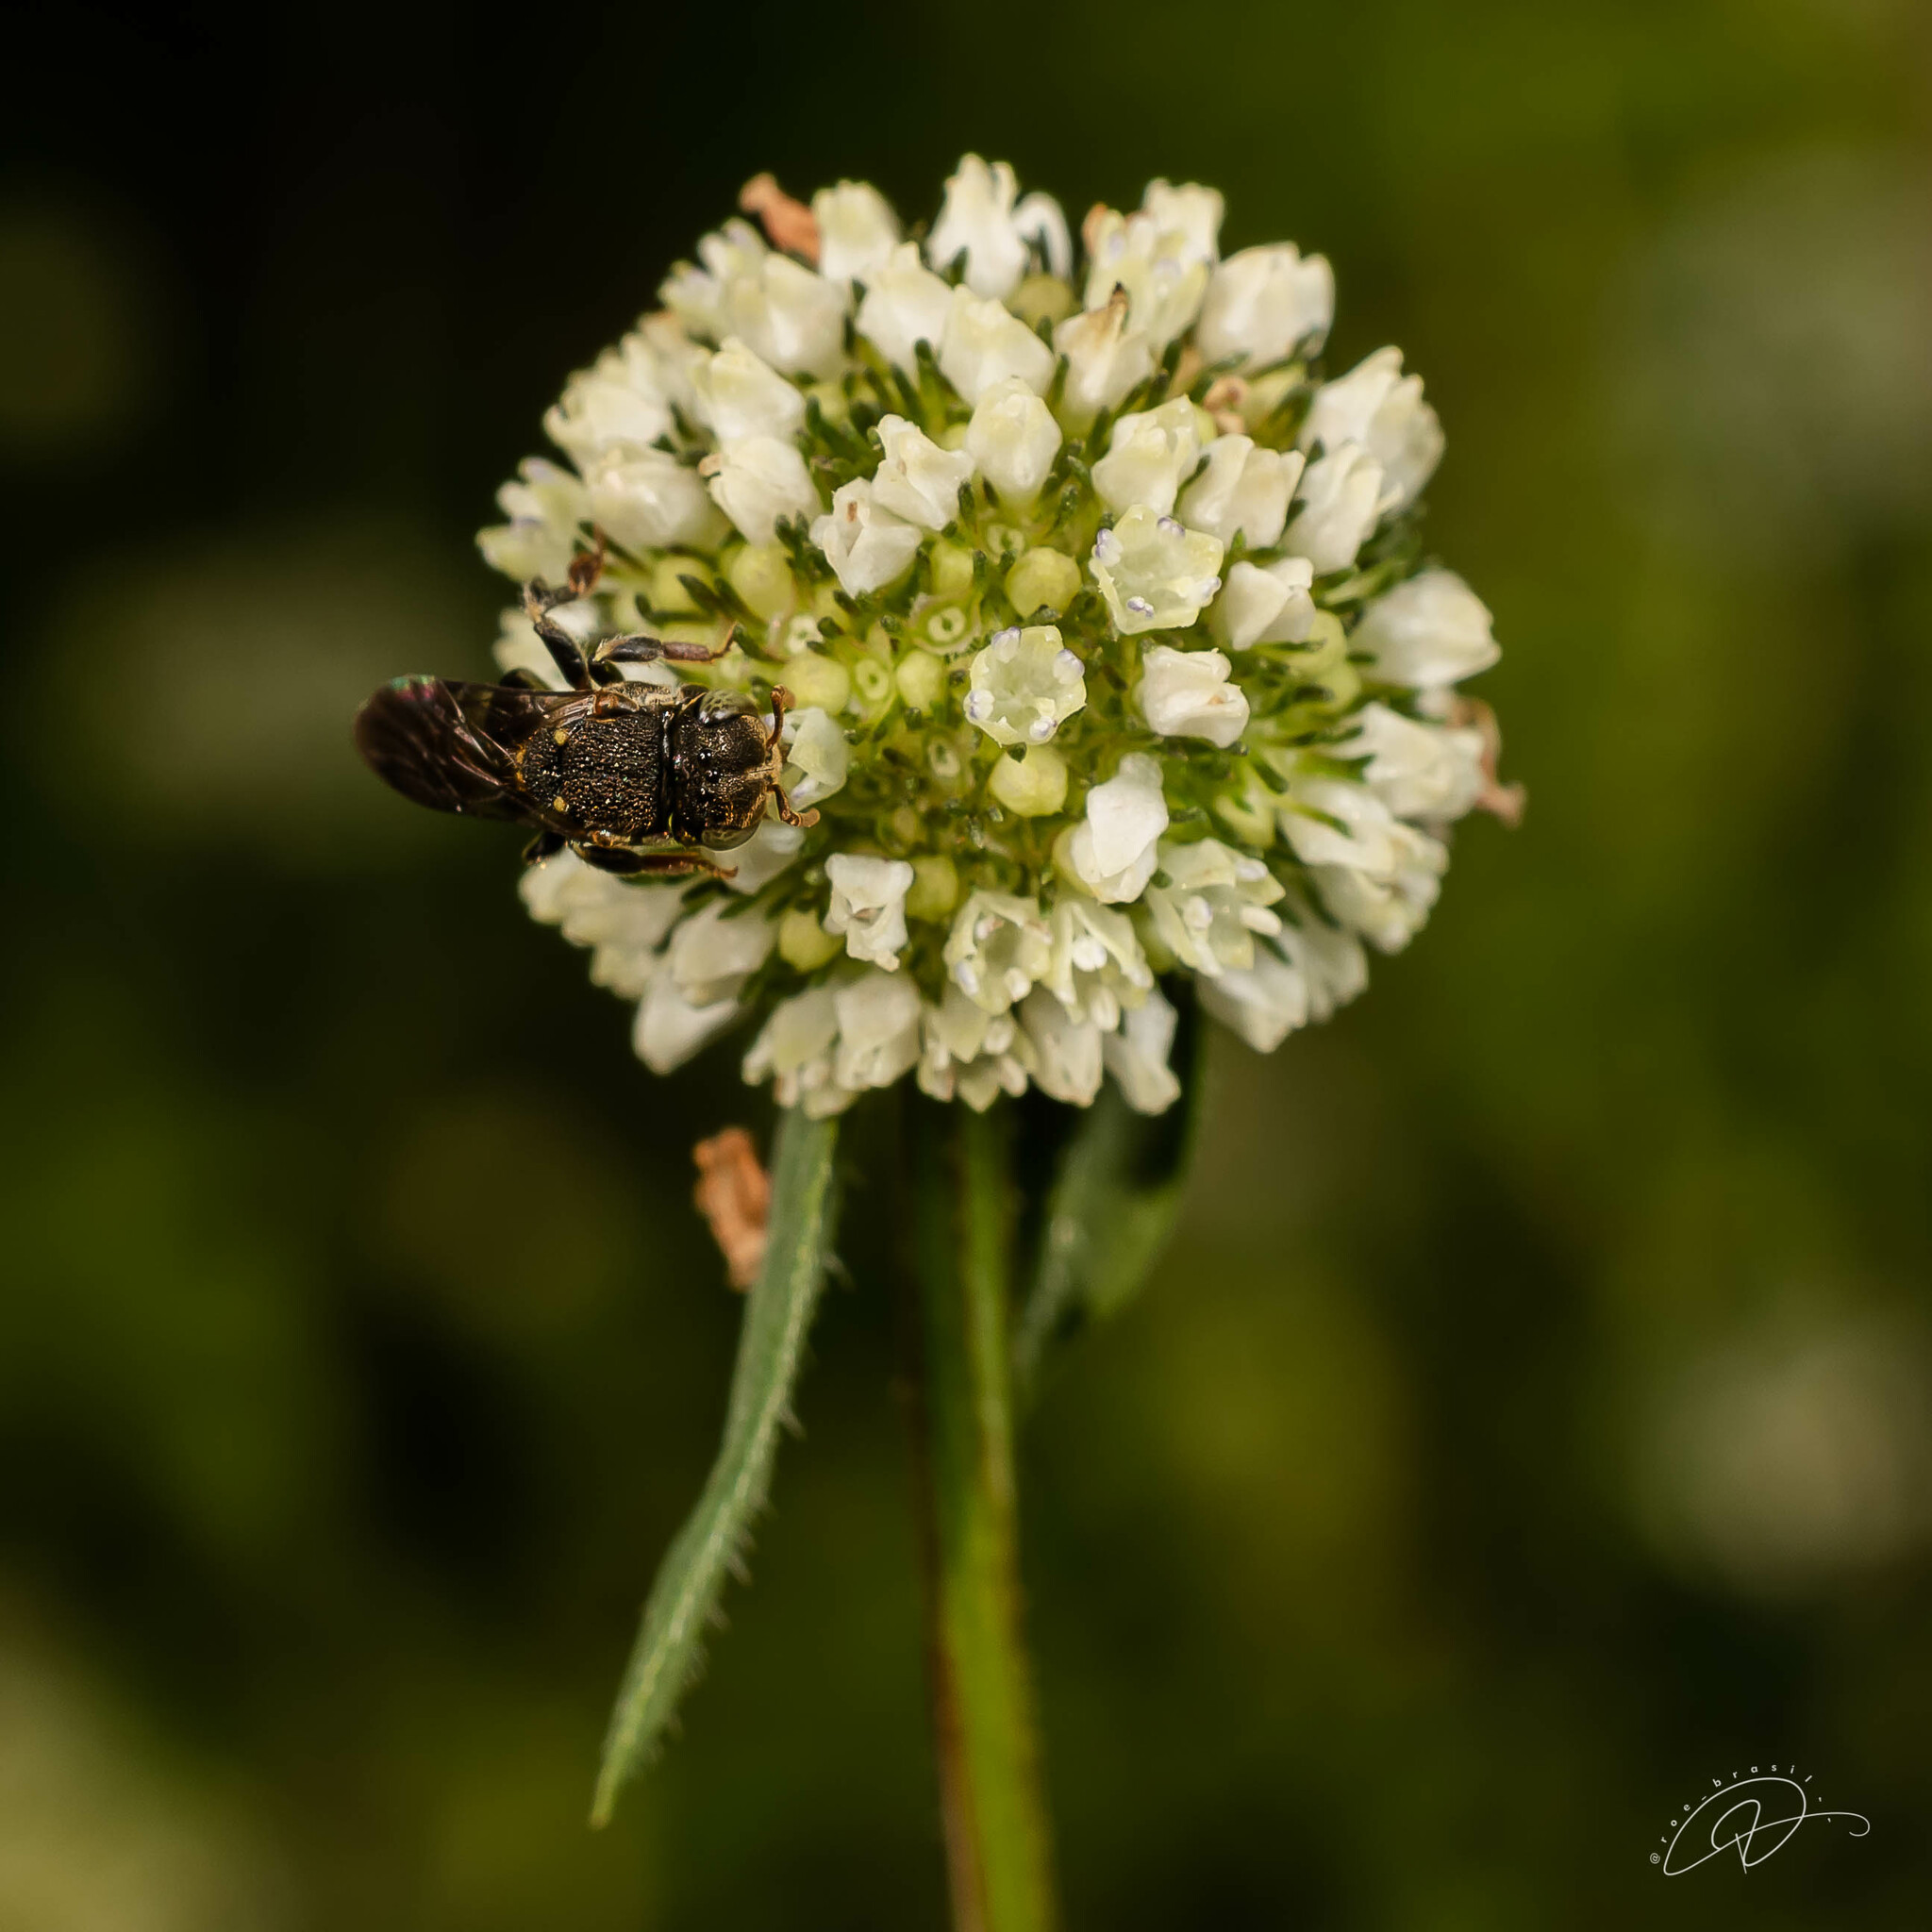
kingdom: Animalia
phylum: Arthropoda
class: Insecta
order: Hymenoptera
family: Apidae
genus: Nannotrigona
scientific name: Nannotrigona testaceicornis
